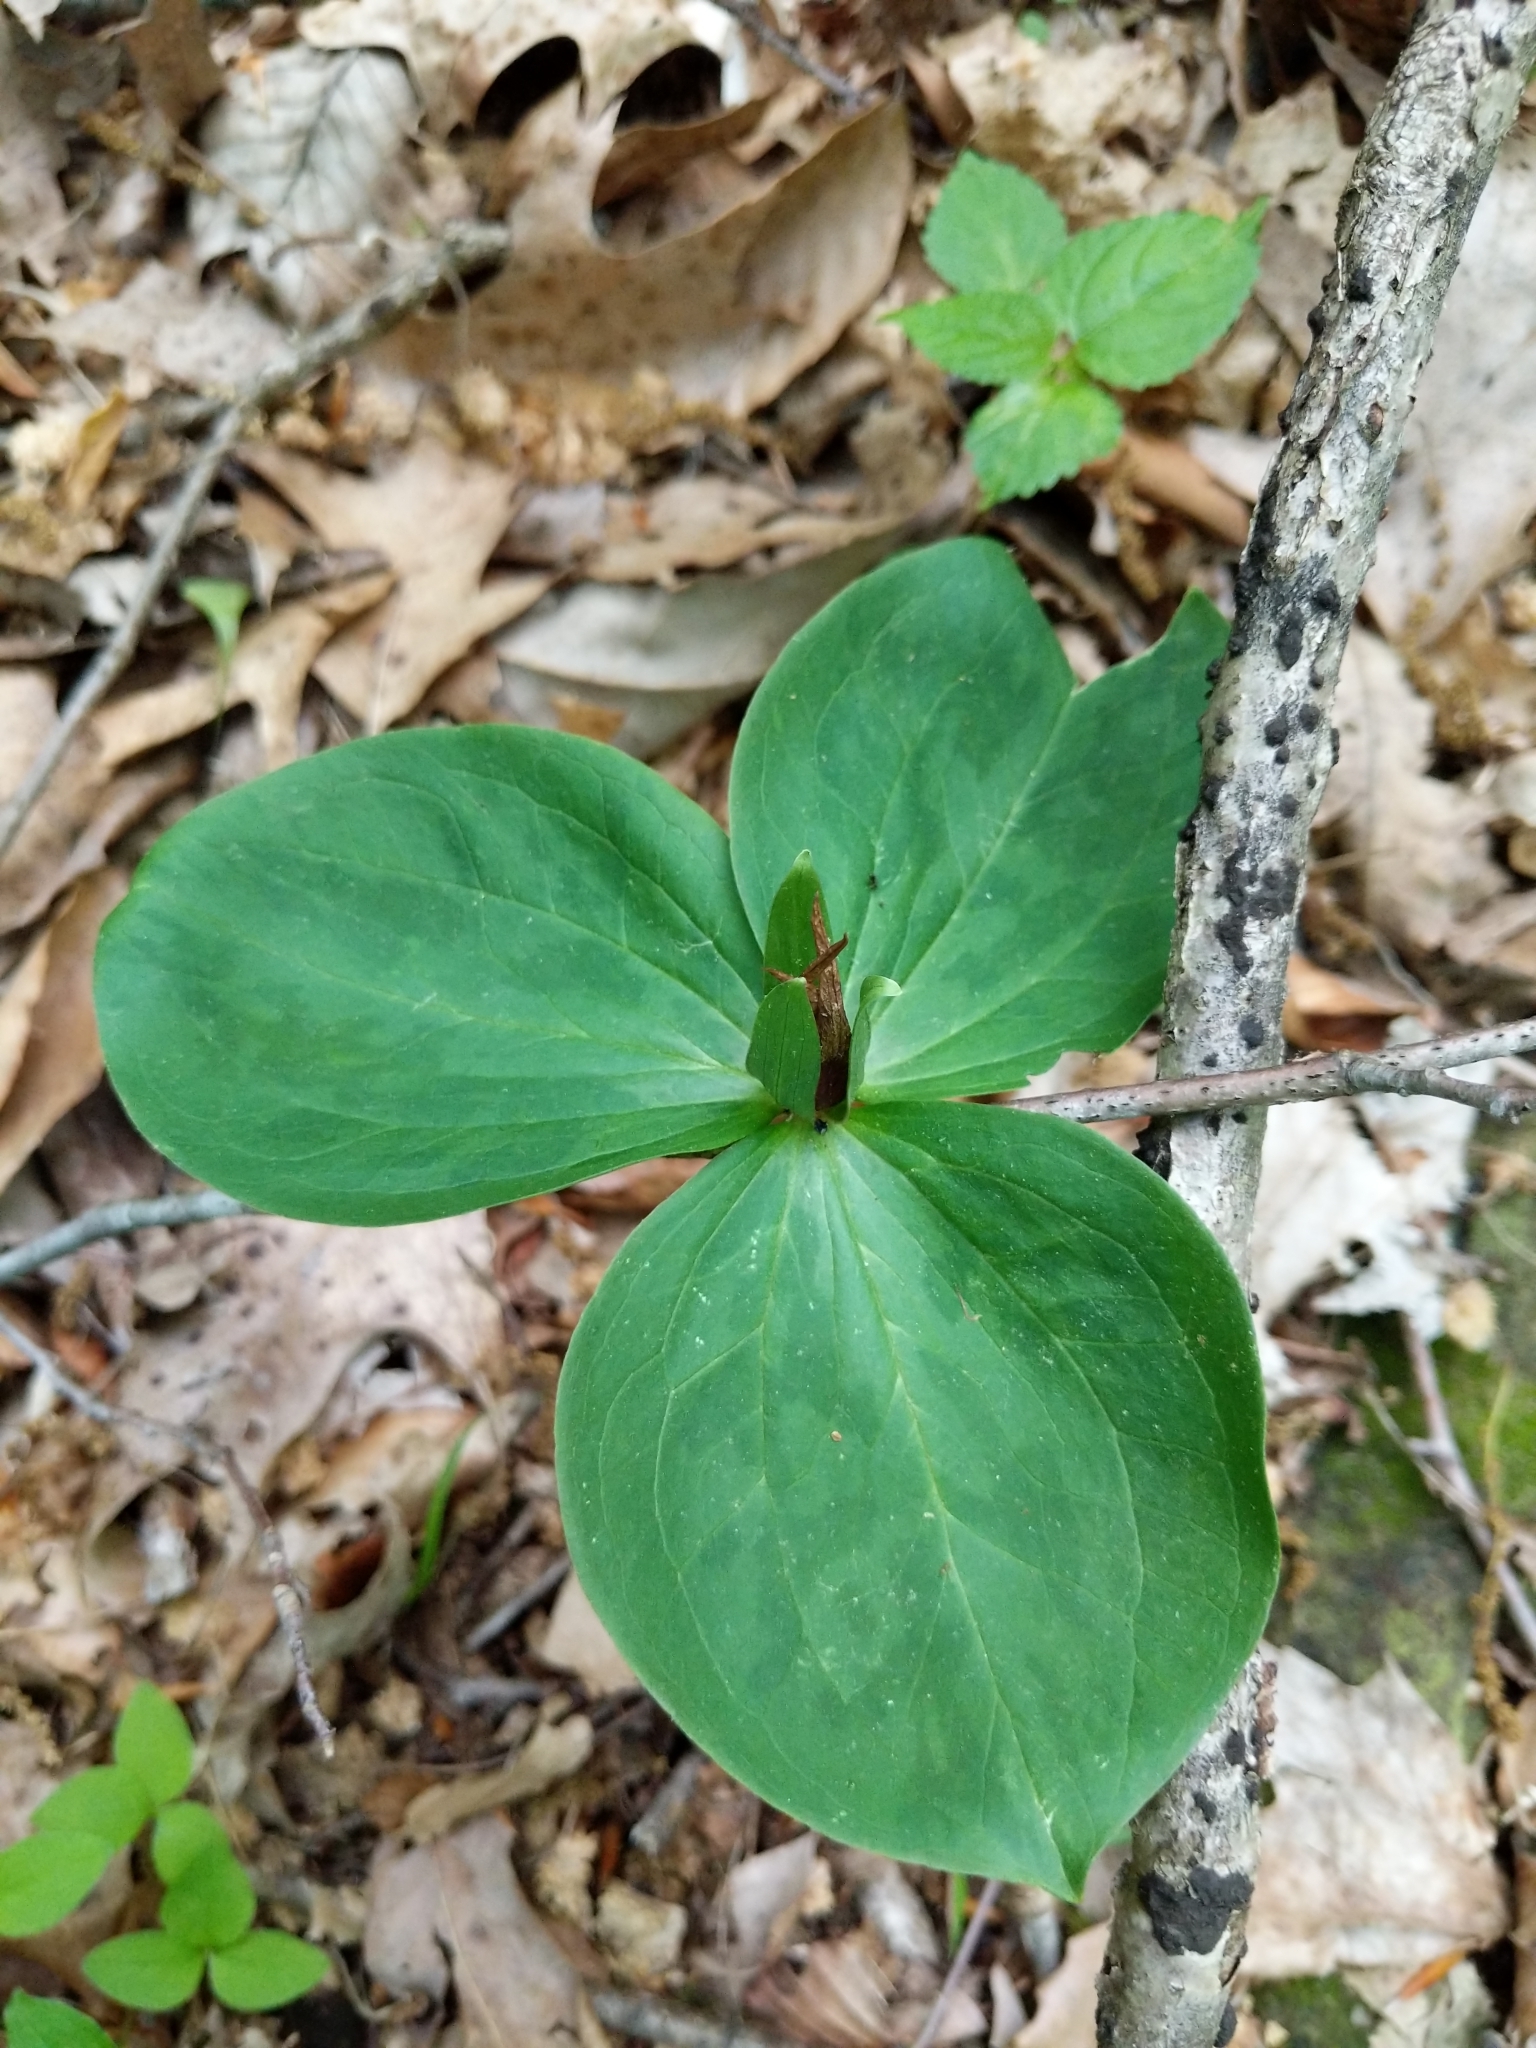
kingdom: Plantae
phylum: Tracheophyta
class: Liliopsida
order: Liliales
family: Melanthiaceae
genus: Trillium
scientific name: Trillium sessile
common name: Sessile trillium
